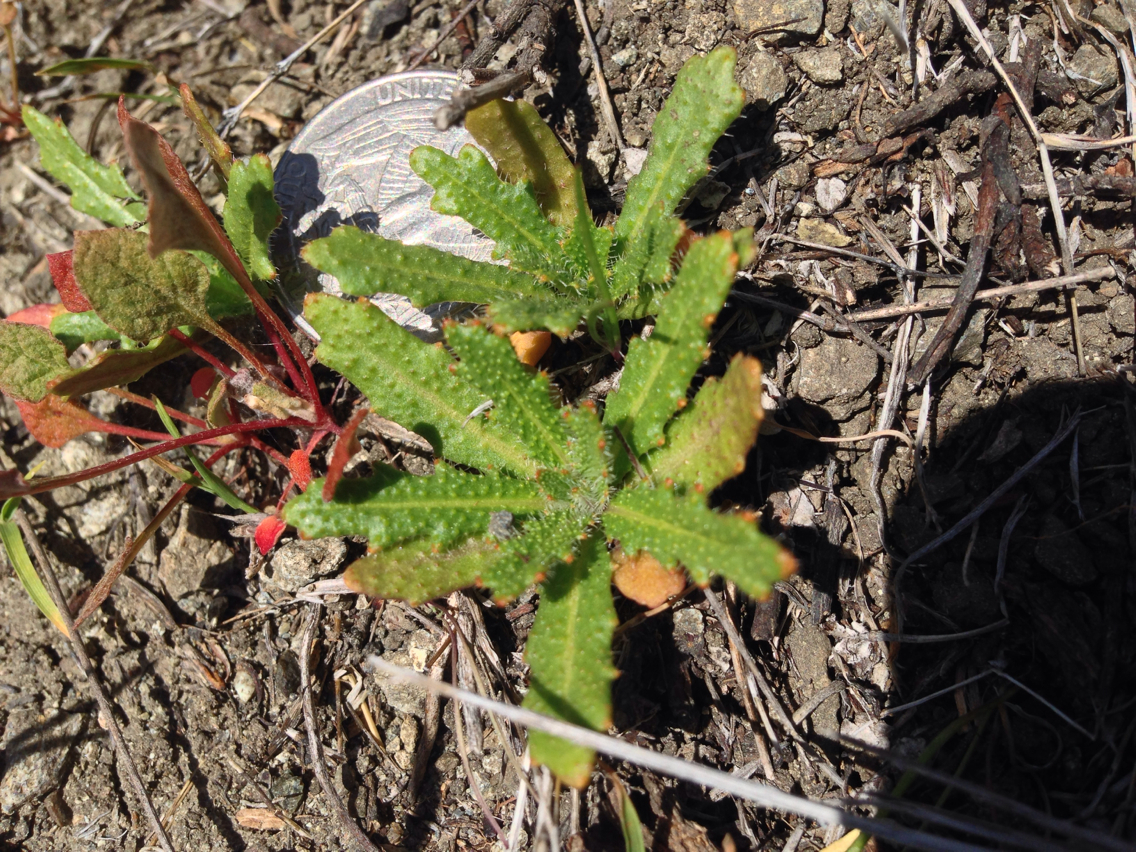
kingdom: Plantae
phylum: Tracheophyta
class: Magnoliopsida
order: Brassicales
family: Brassicaceae
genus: Streptanthus
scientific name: Streptanthus glandulosus
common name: Jewel-flower
